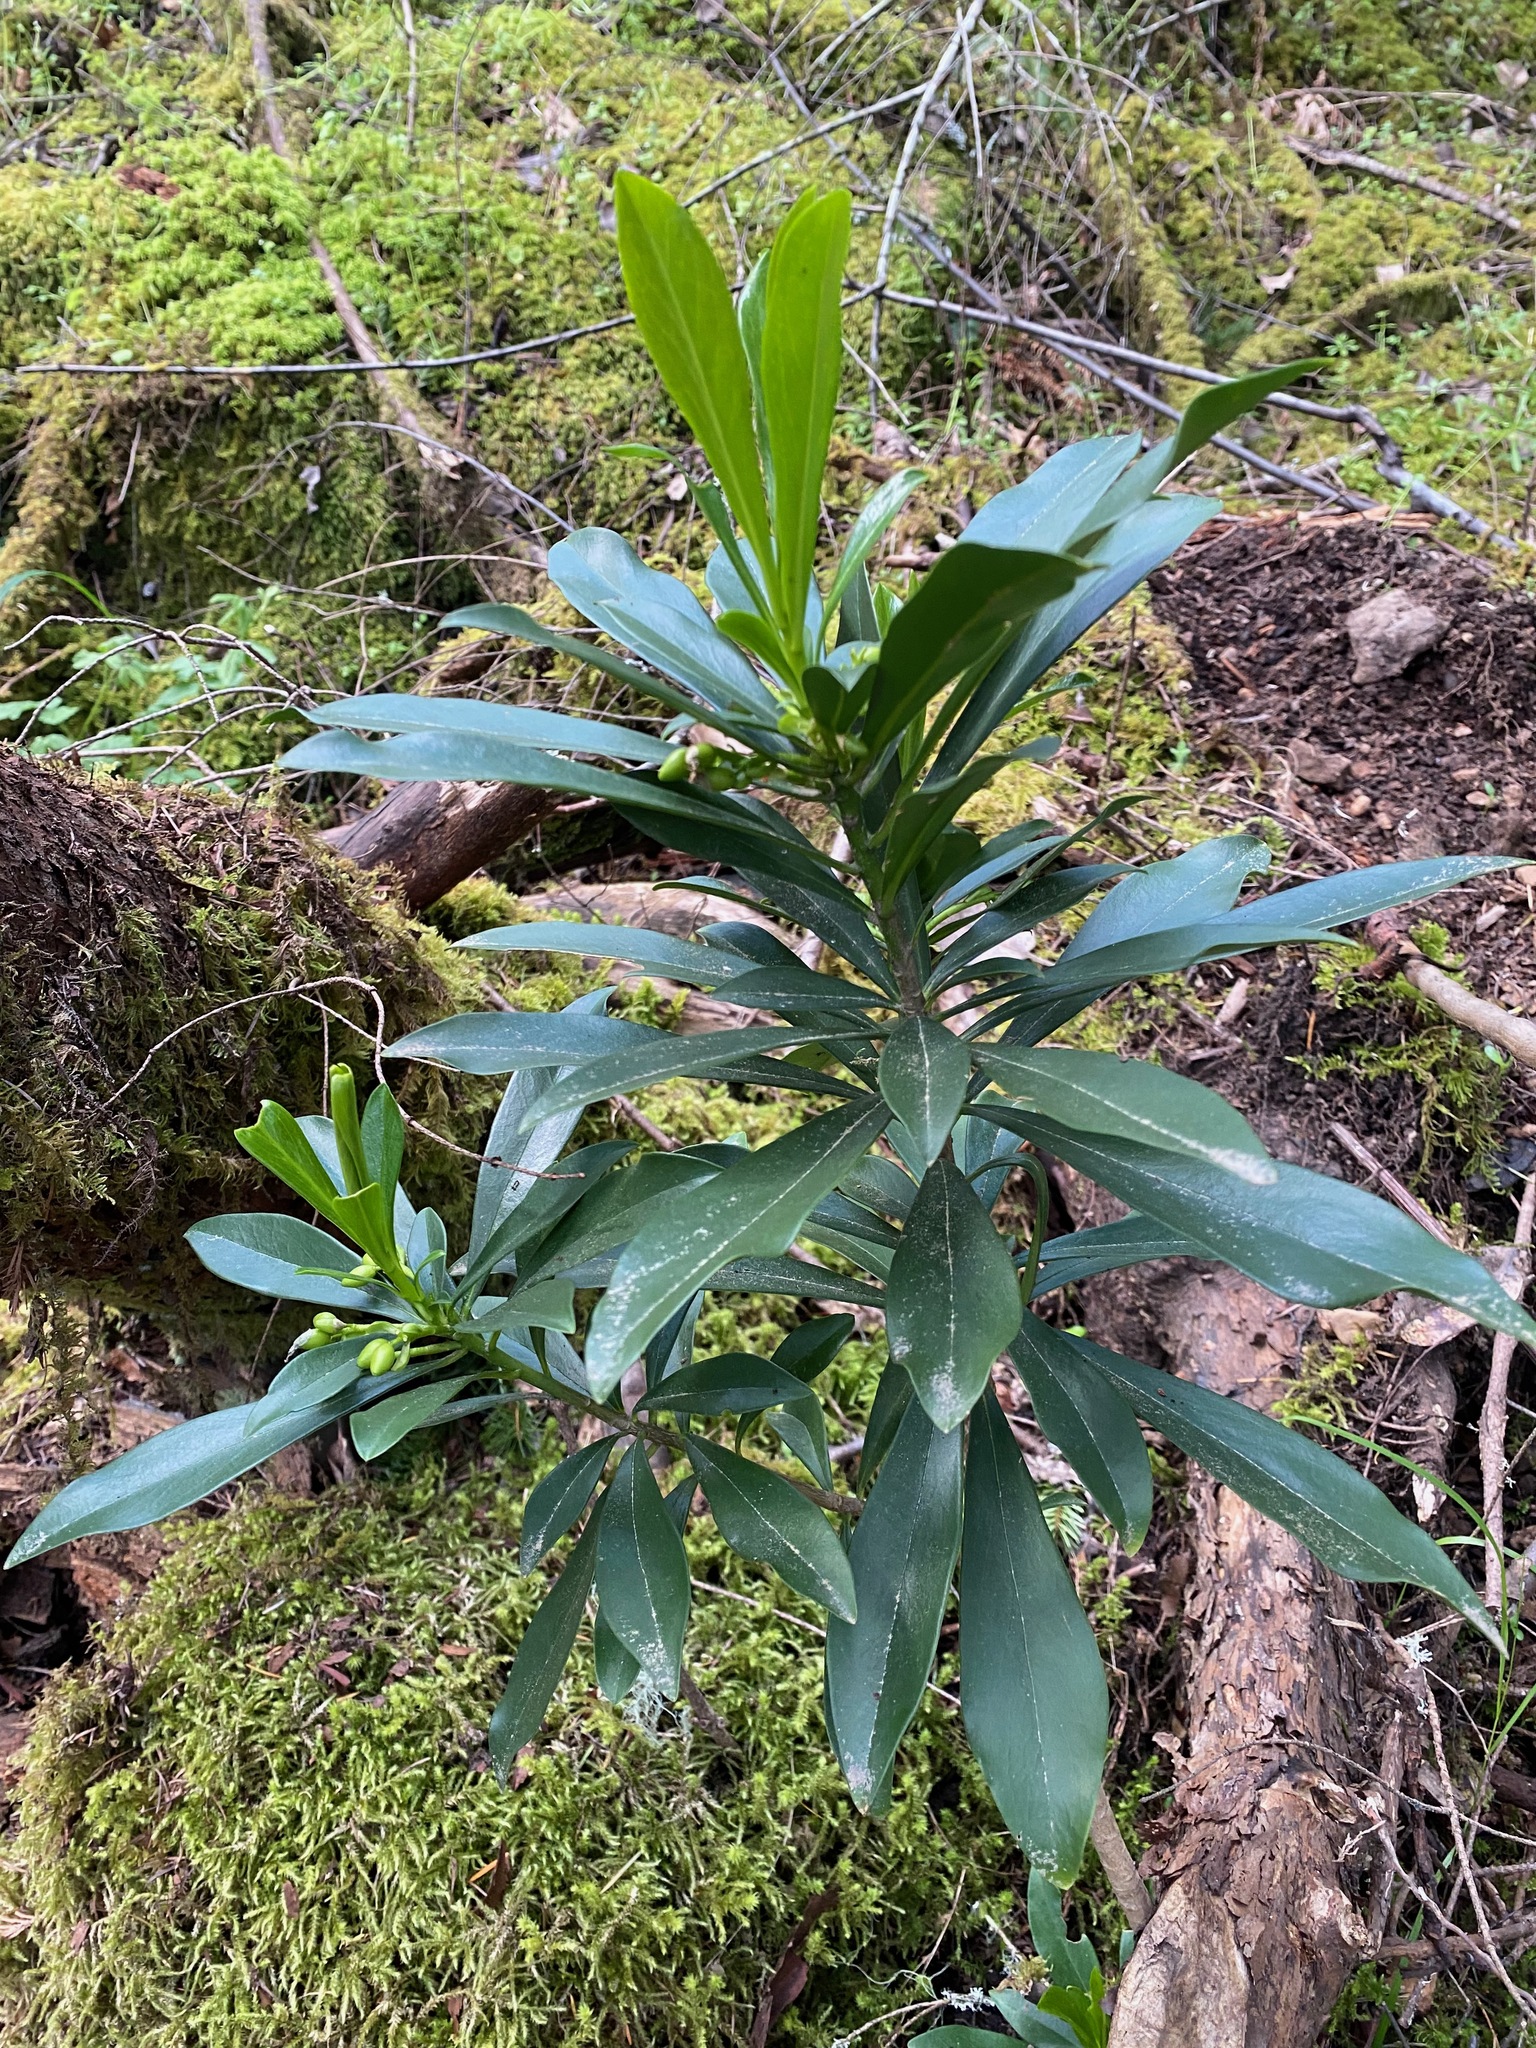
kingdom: Plantae
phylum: Tracheophyta
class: Magnoliopsida
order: Malvales
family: Thymelaeaceae
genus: Daphne
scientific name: Daphne laureola
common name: Spurge-laurel
